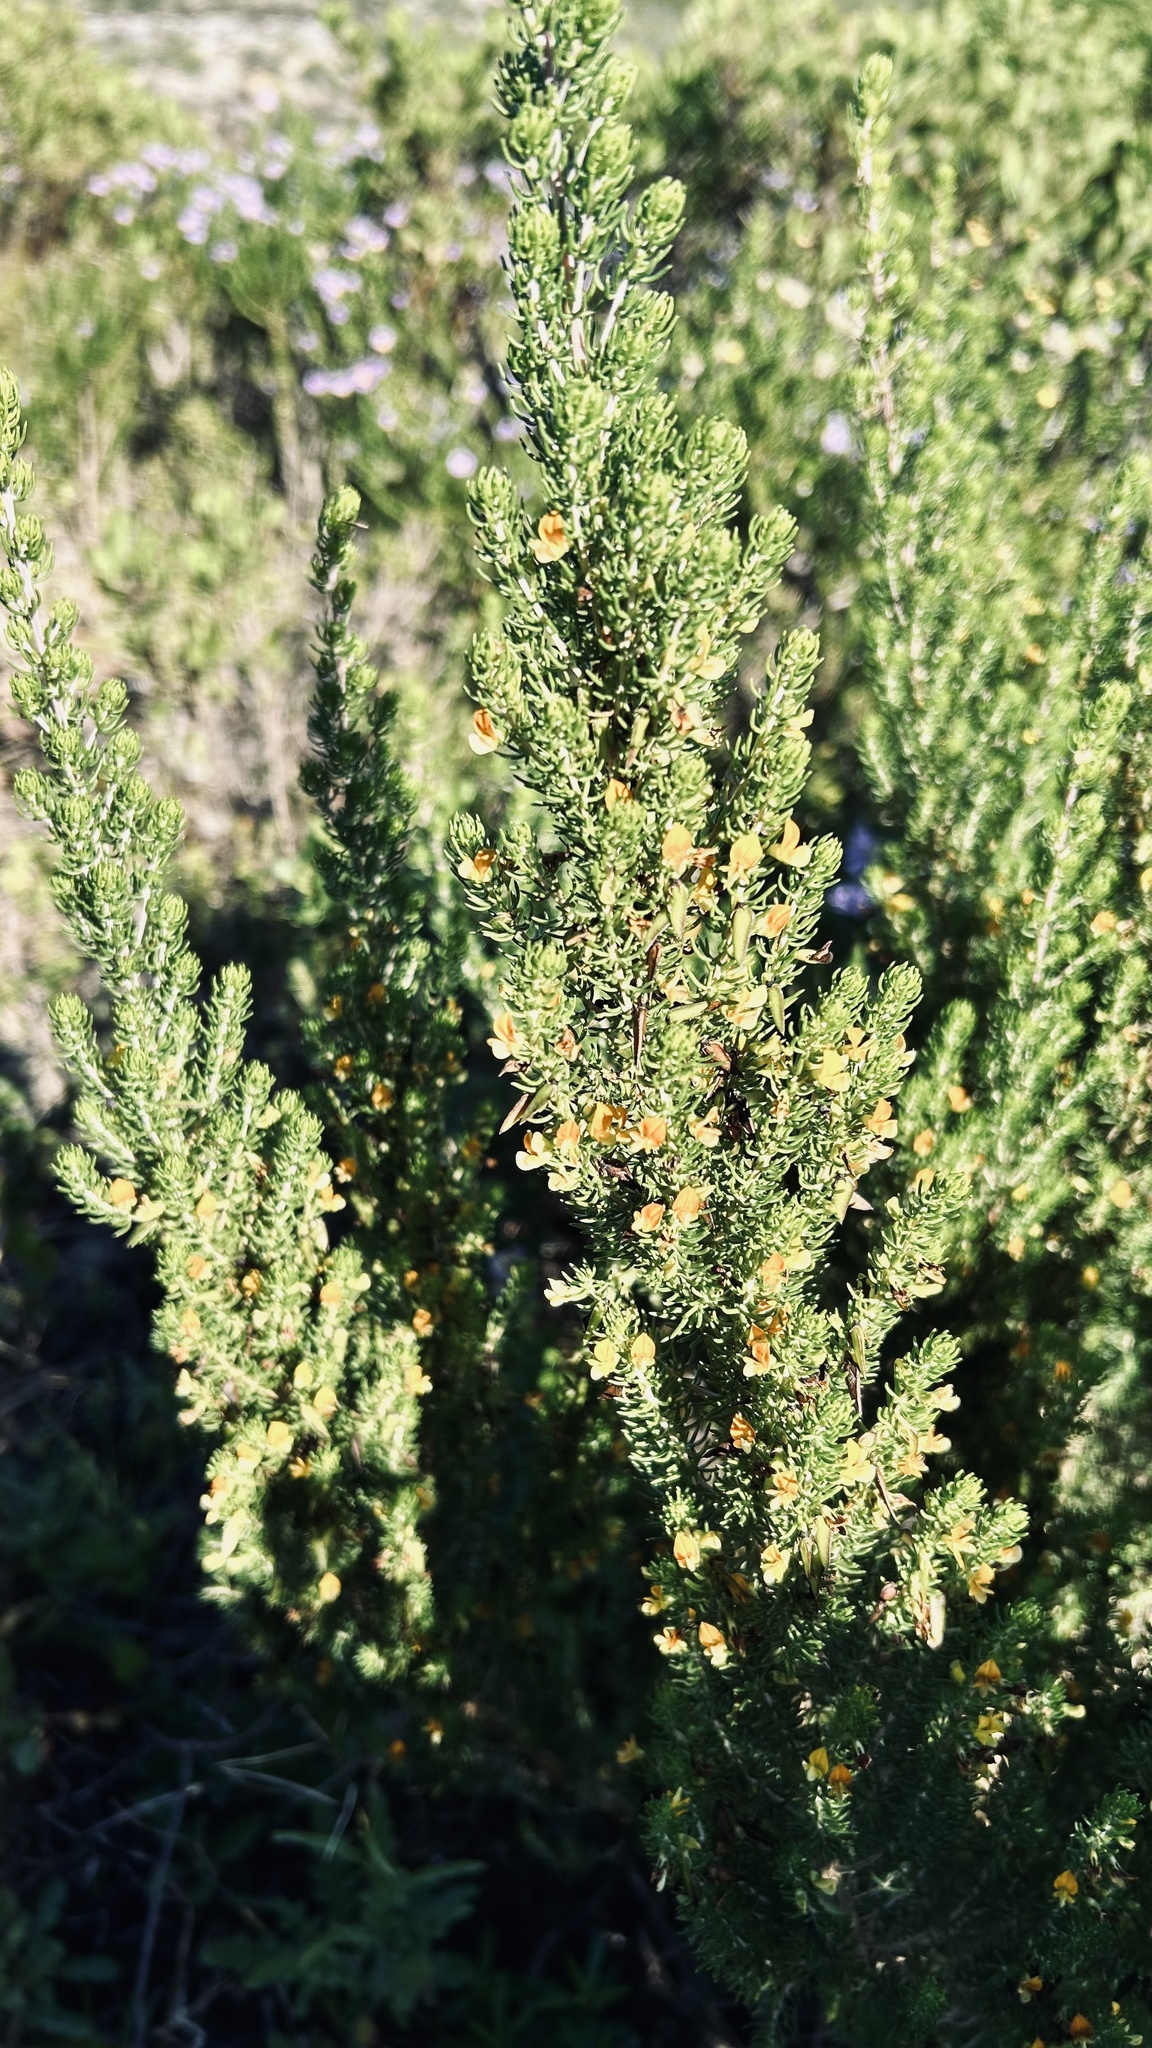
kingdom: Plantae
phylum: Tracheophyta
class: Magnoliopsida
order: Fabales
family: Fabaceae
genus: Aspalathus
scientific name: Aspalathus subtingens
